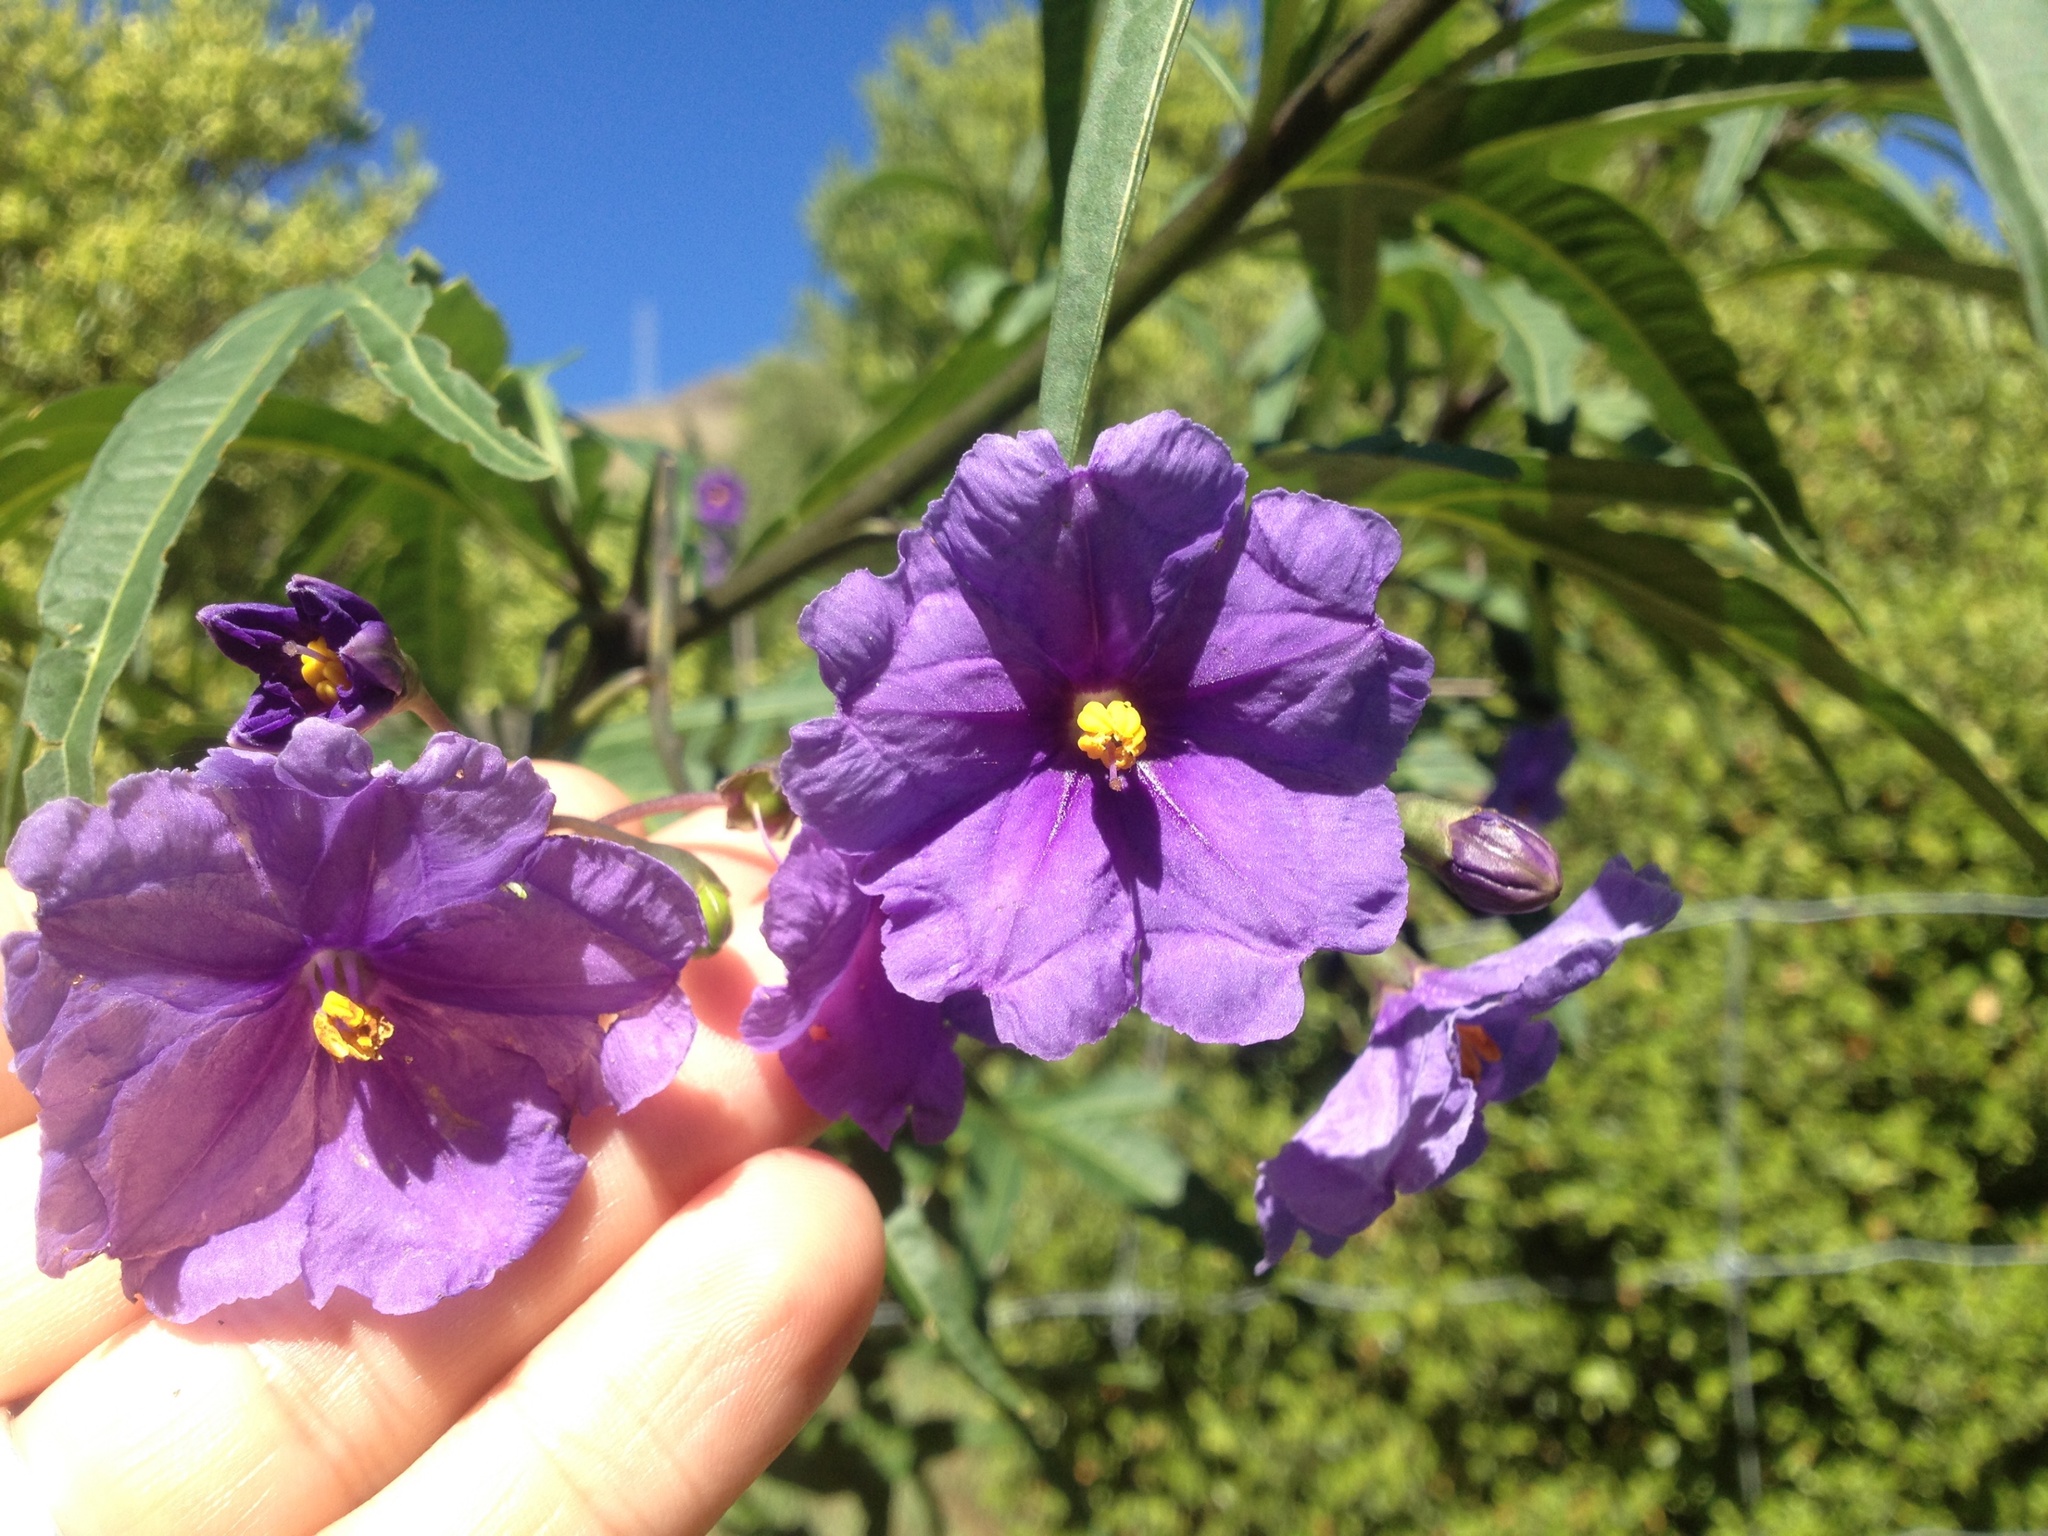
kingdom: Plantae
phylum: Tracheophyta
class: Magnoliopsida
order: Solanales
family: Solanaceae
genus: Solanum
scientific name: Solanum laciniatum
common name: Kangaroo-apple
